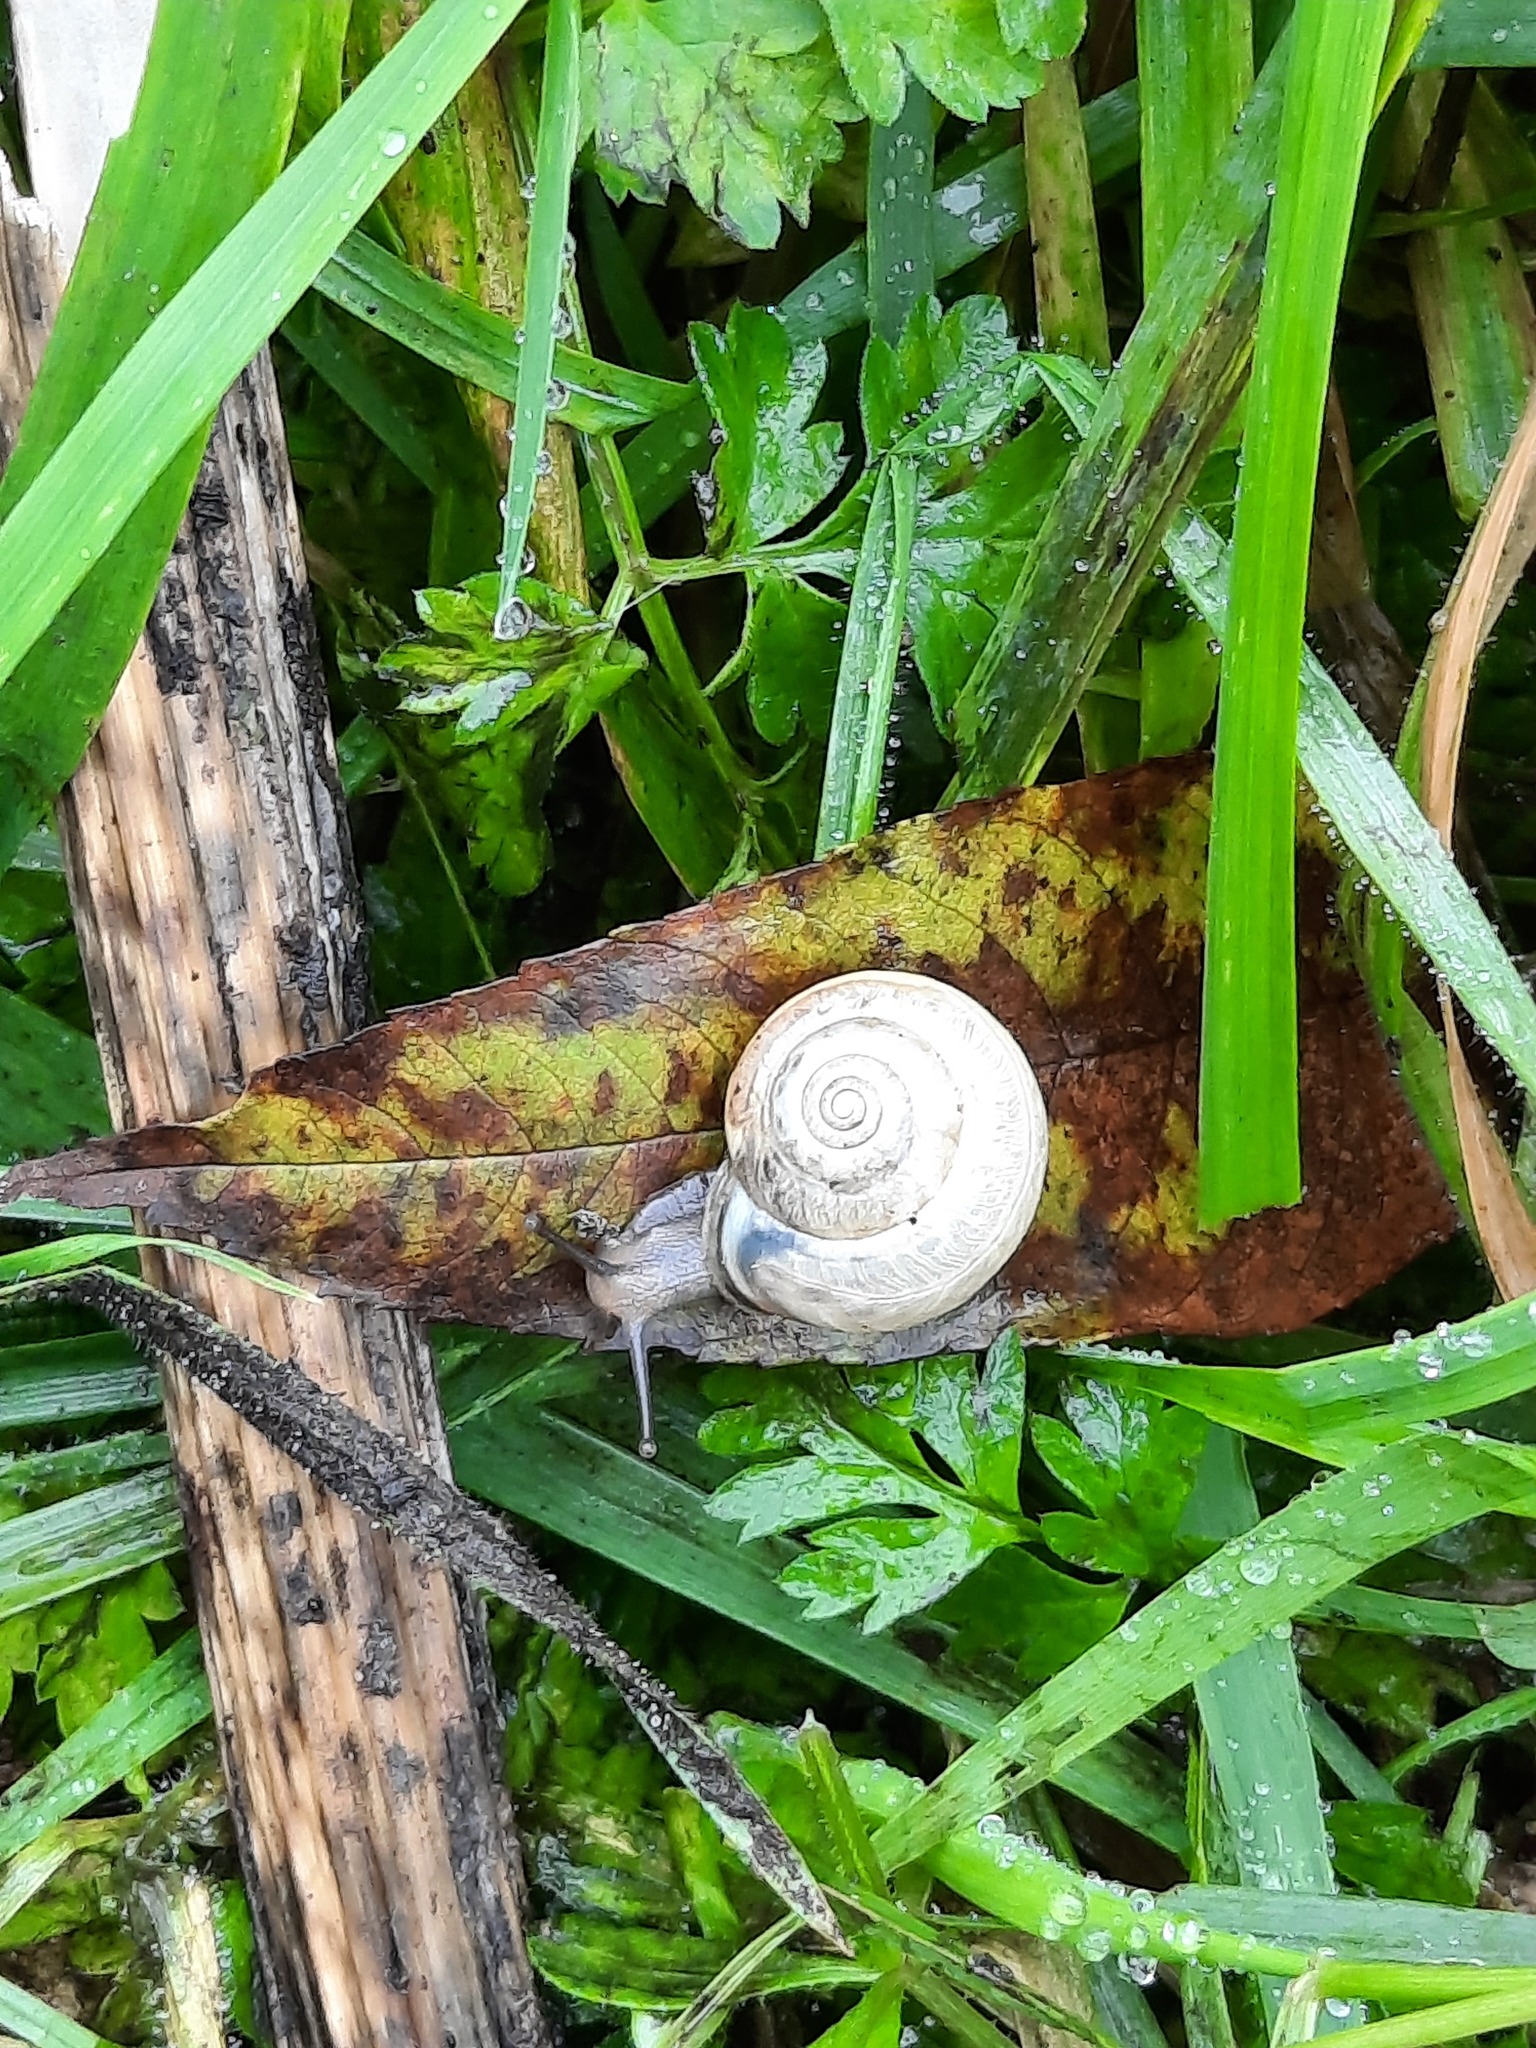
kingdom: Animalia
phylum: Mollusca
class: Gastropoda
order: Stylommatophora
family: Hygromiidae
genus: Monacha
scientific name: Monacha cantiana
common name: Kentish snail
